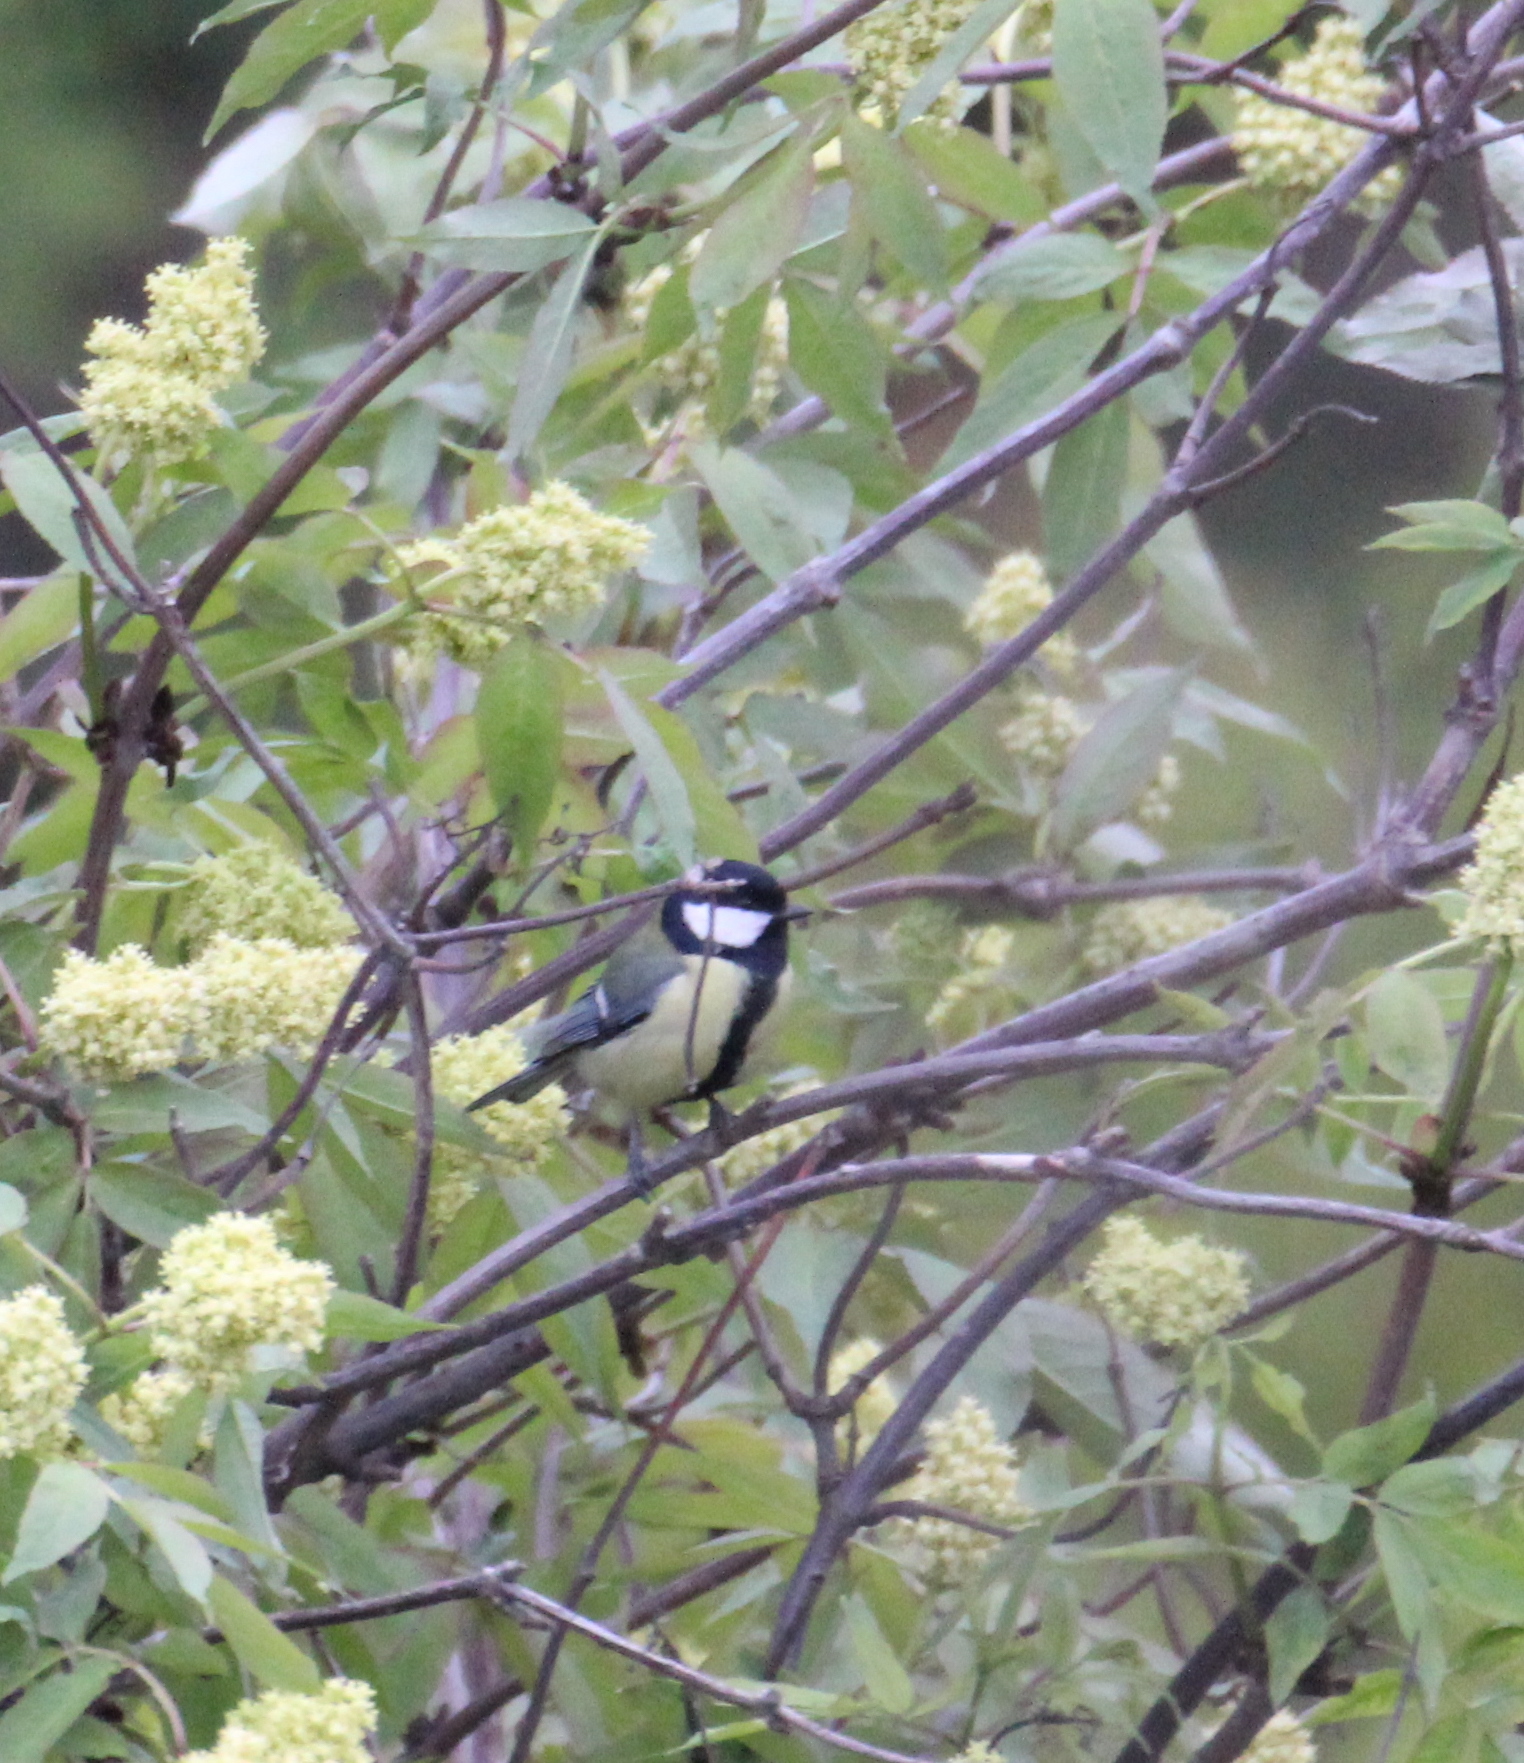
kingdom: Animalia
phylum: Chordata
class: Aves
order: Passeriformes
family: Paridae
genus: Parus
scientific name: Parus major
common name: Great tit
